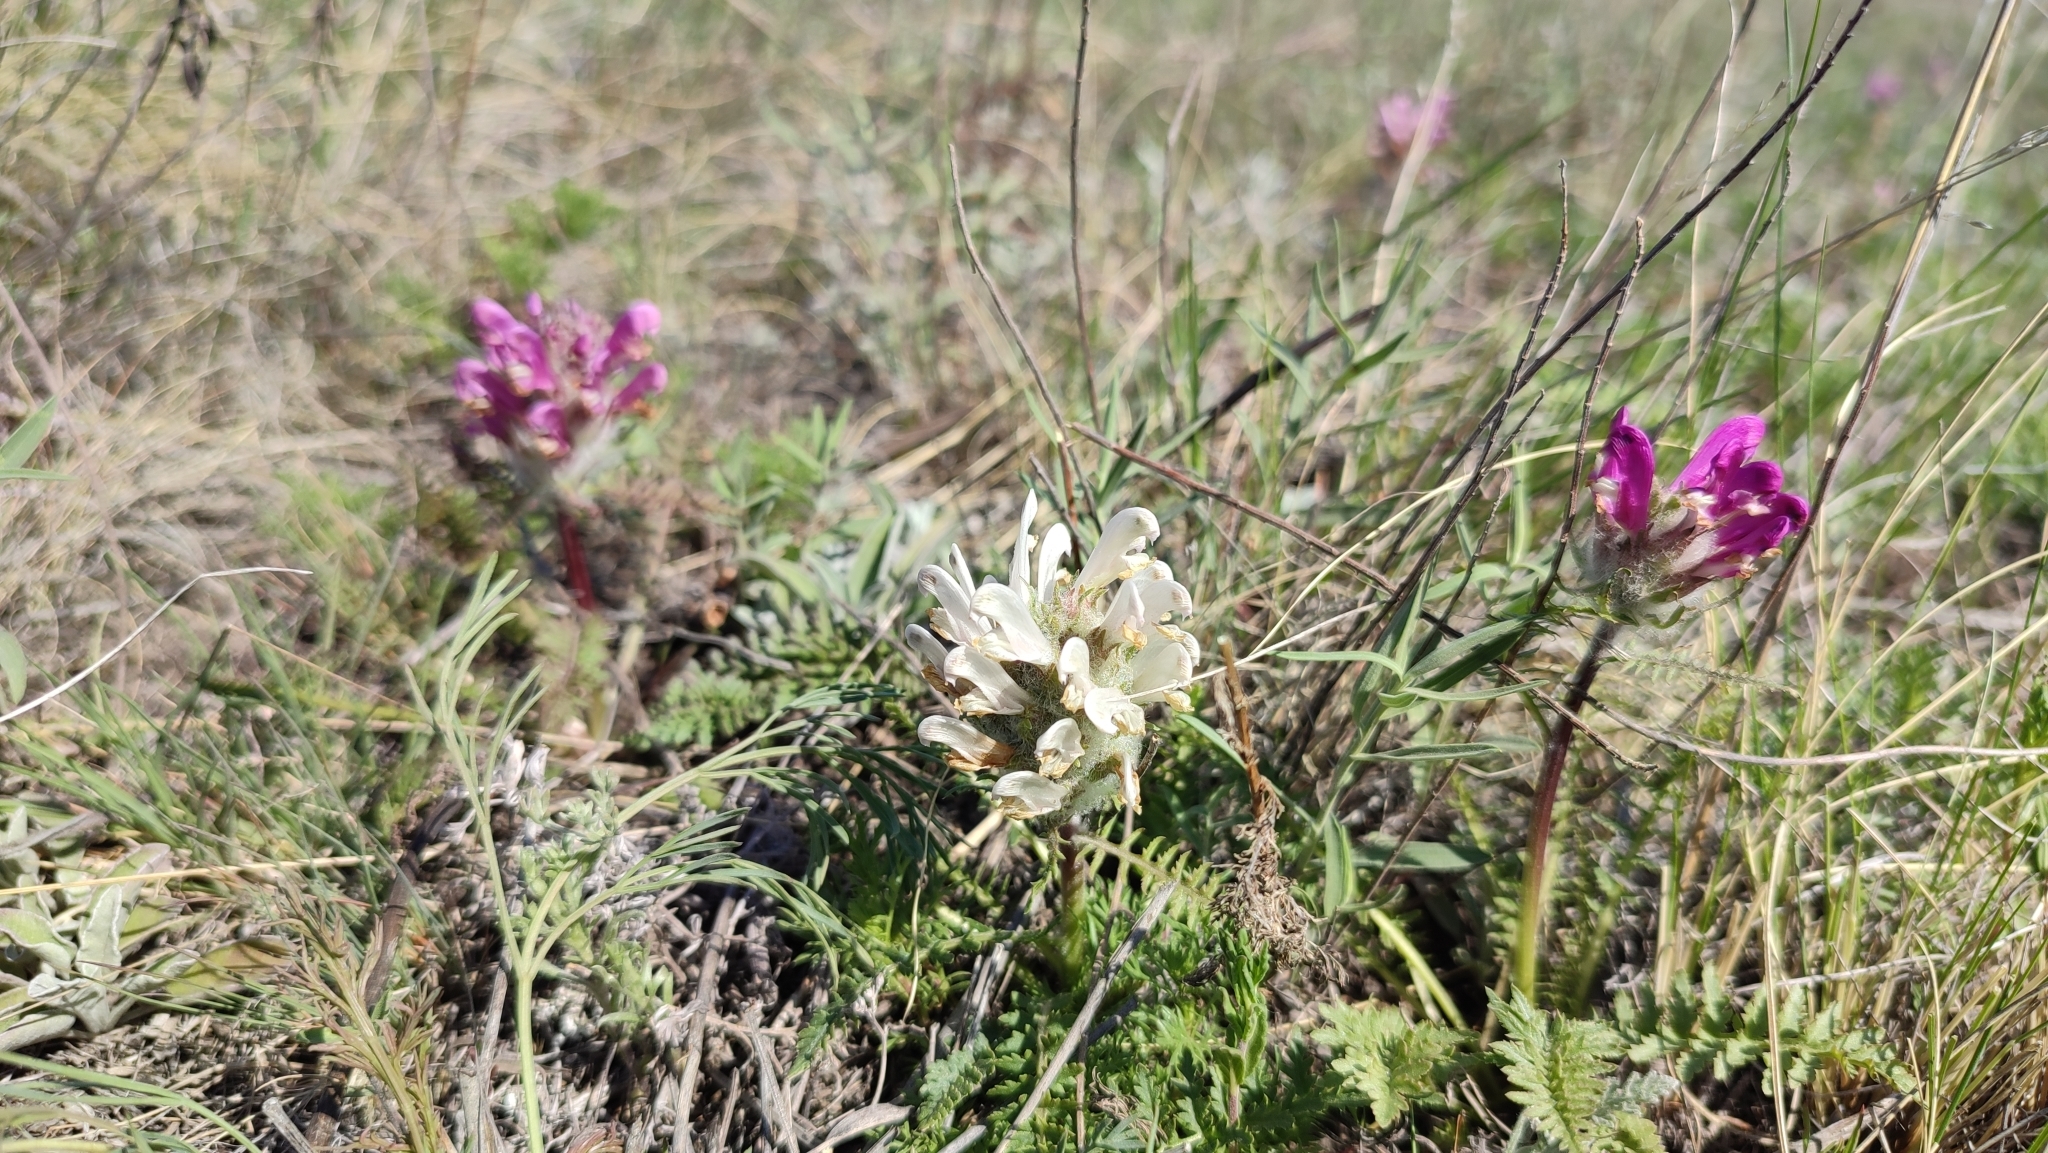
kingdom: Plantae
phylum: Tracheophyta
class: Magnoliopsida
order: Lamiales
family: Orobanchaceae
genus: Pedicularis
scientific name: Pedicularis dasystachys
